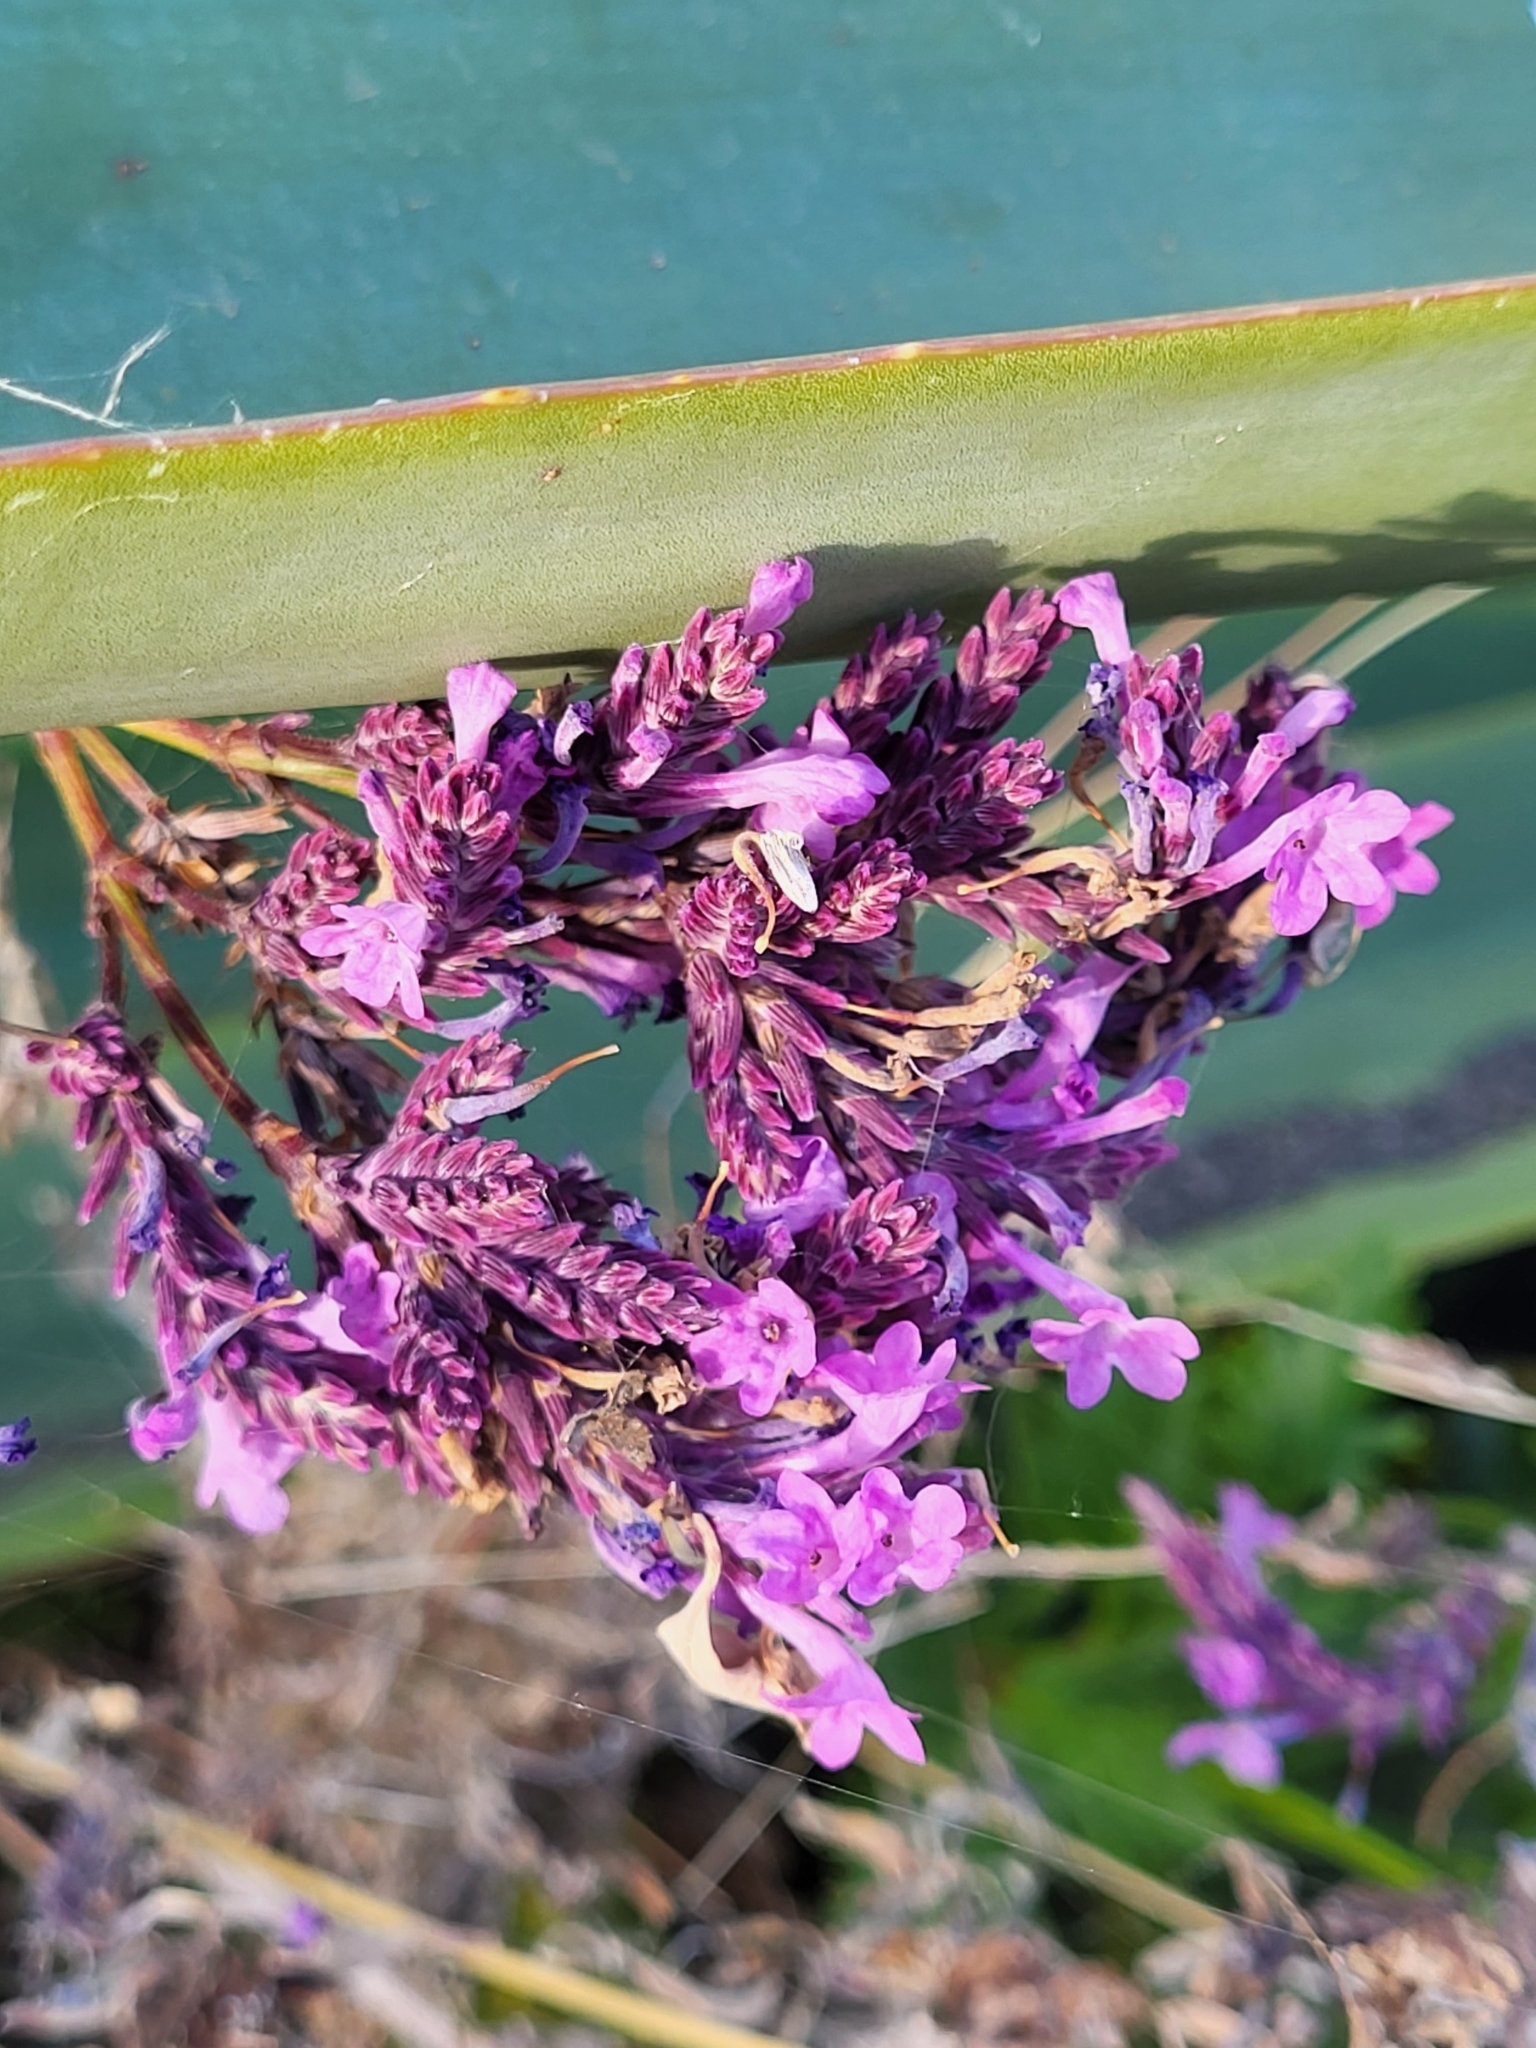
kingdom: Plantae
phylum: Tracheophyta
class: Magnoliopsida
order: Lamiales
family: Lamiaceae
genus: Lavandula
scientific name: Lavandula rotundifolia
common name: Round-leaf lavender
